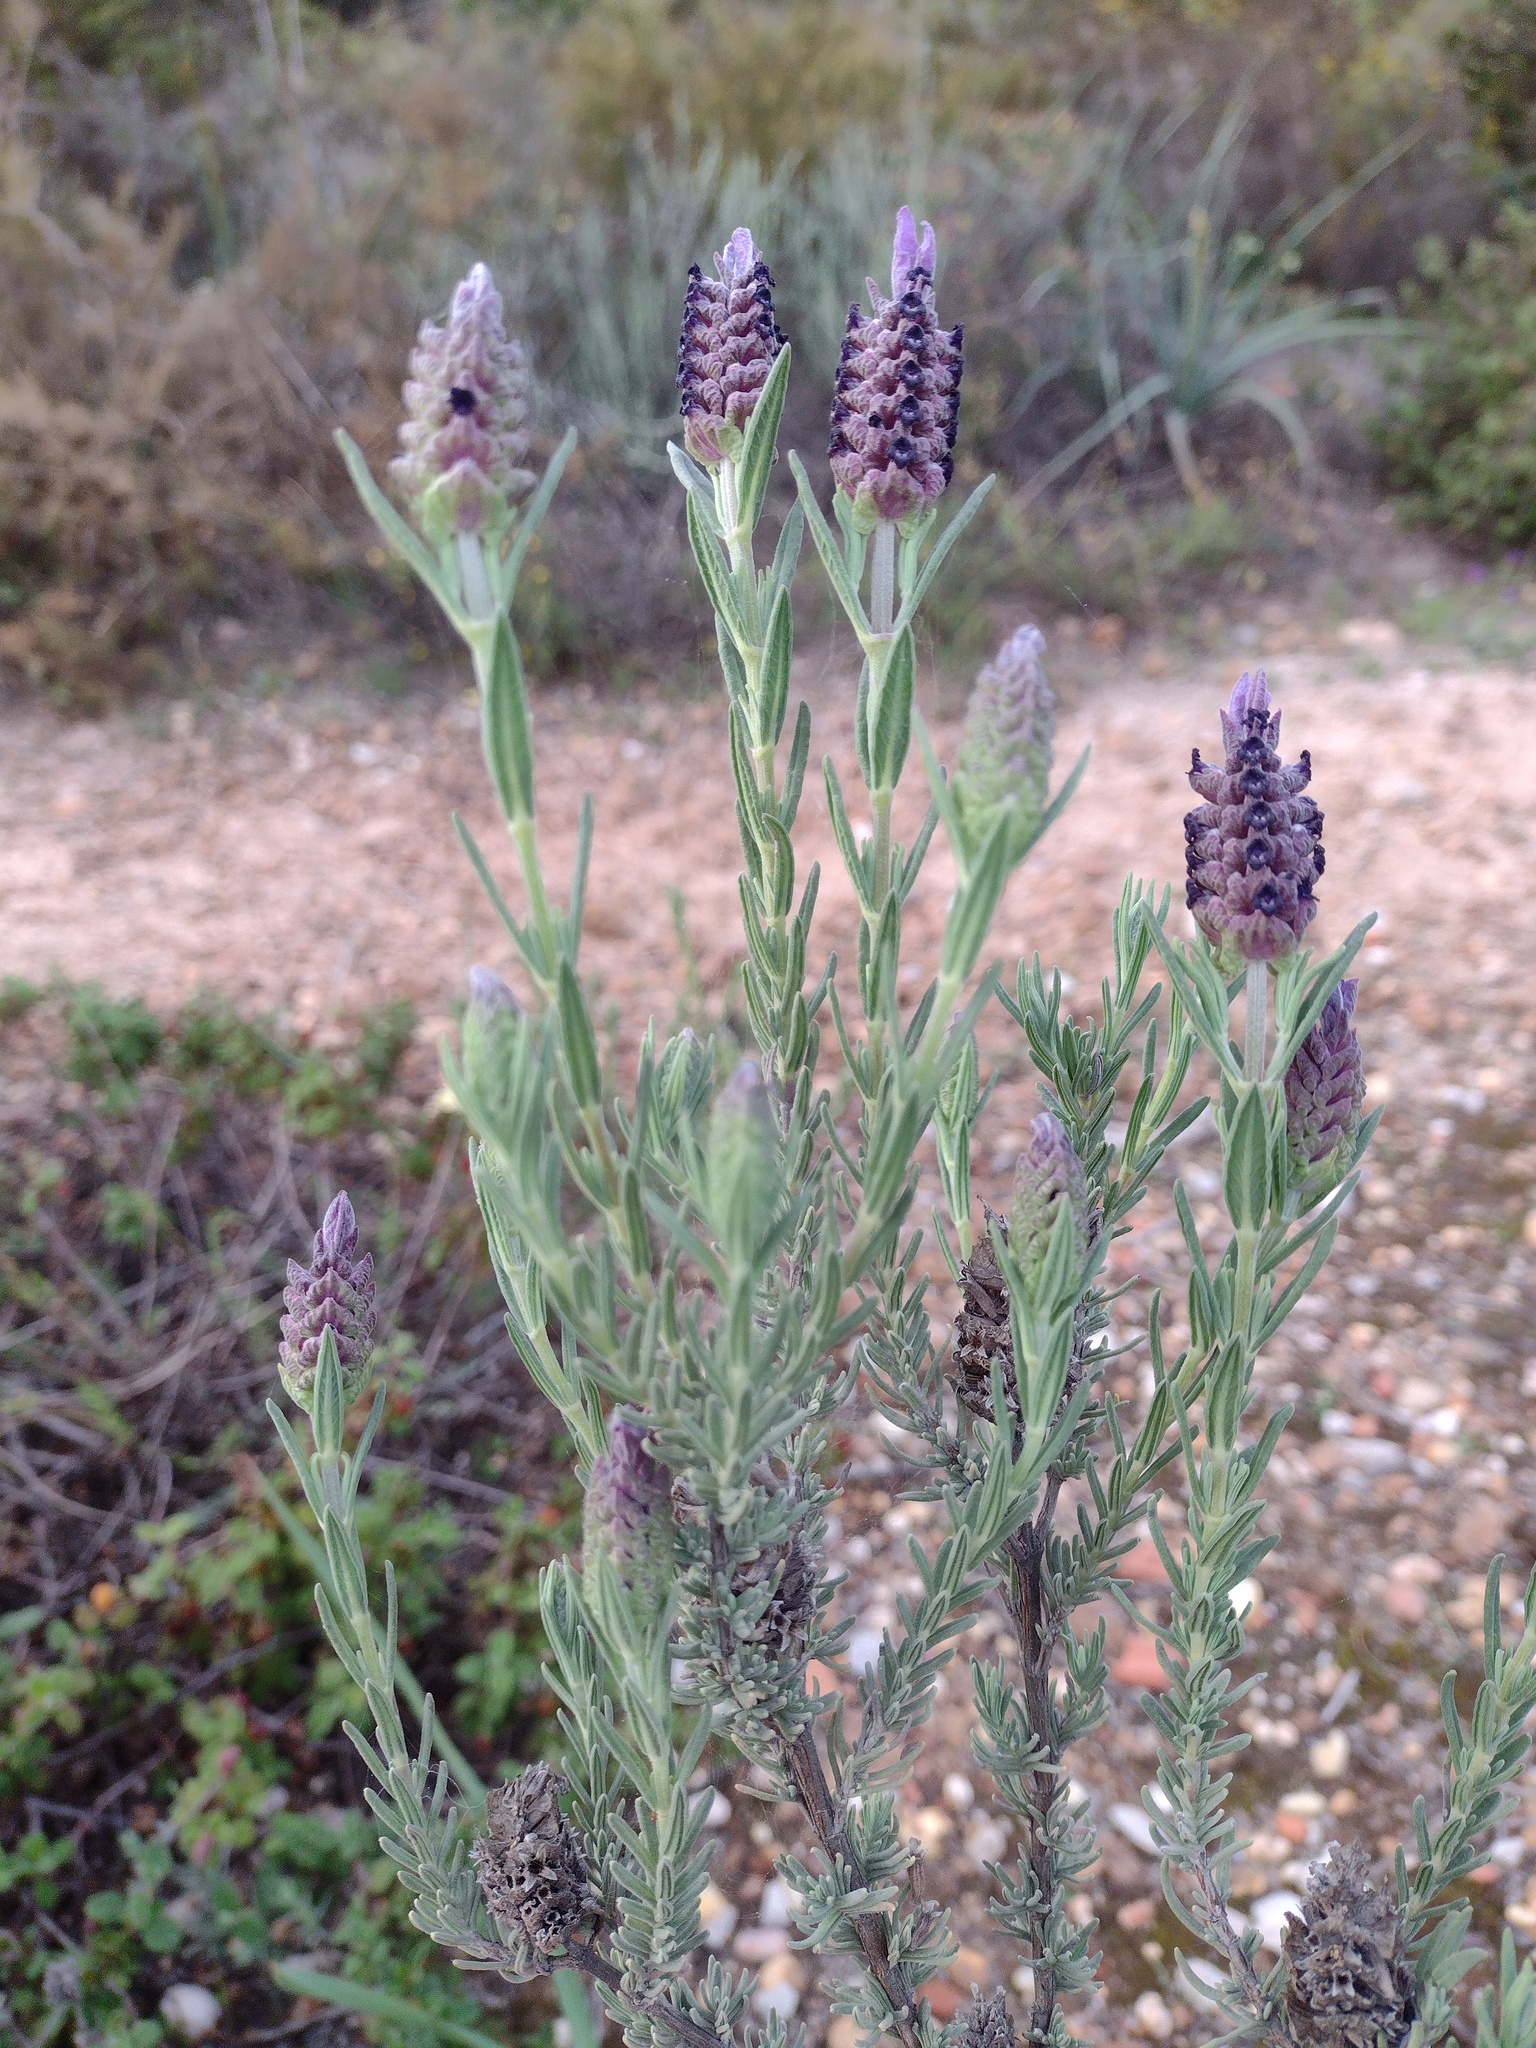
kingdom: Plantae
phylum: Tracheophyta
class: Magnoliopsida
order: Lamiales
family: Lamiaceae
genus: Lavandula
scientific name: Lavandula stoechas
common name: French lavender
